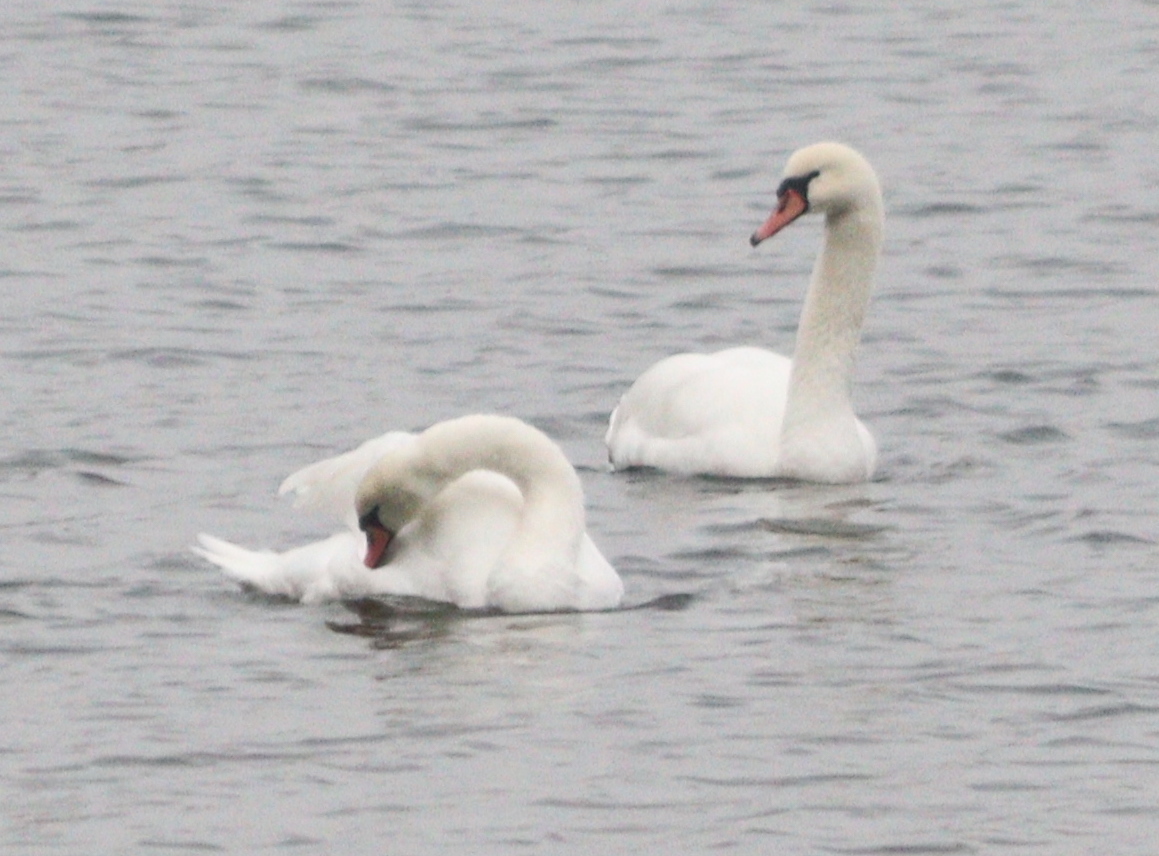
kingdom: Animalia
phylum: Chordata
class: Aves
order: Anseriformes
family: Anatidae
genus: Cygnus
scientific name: Cygnus olor
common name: Mute swan
